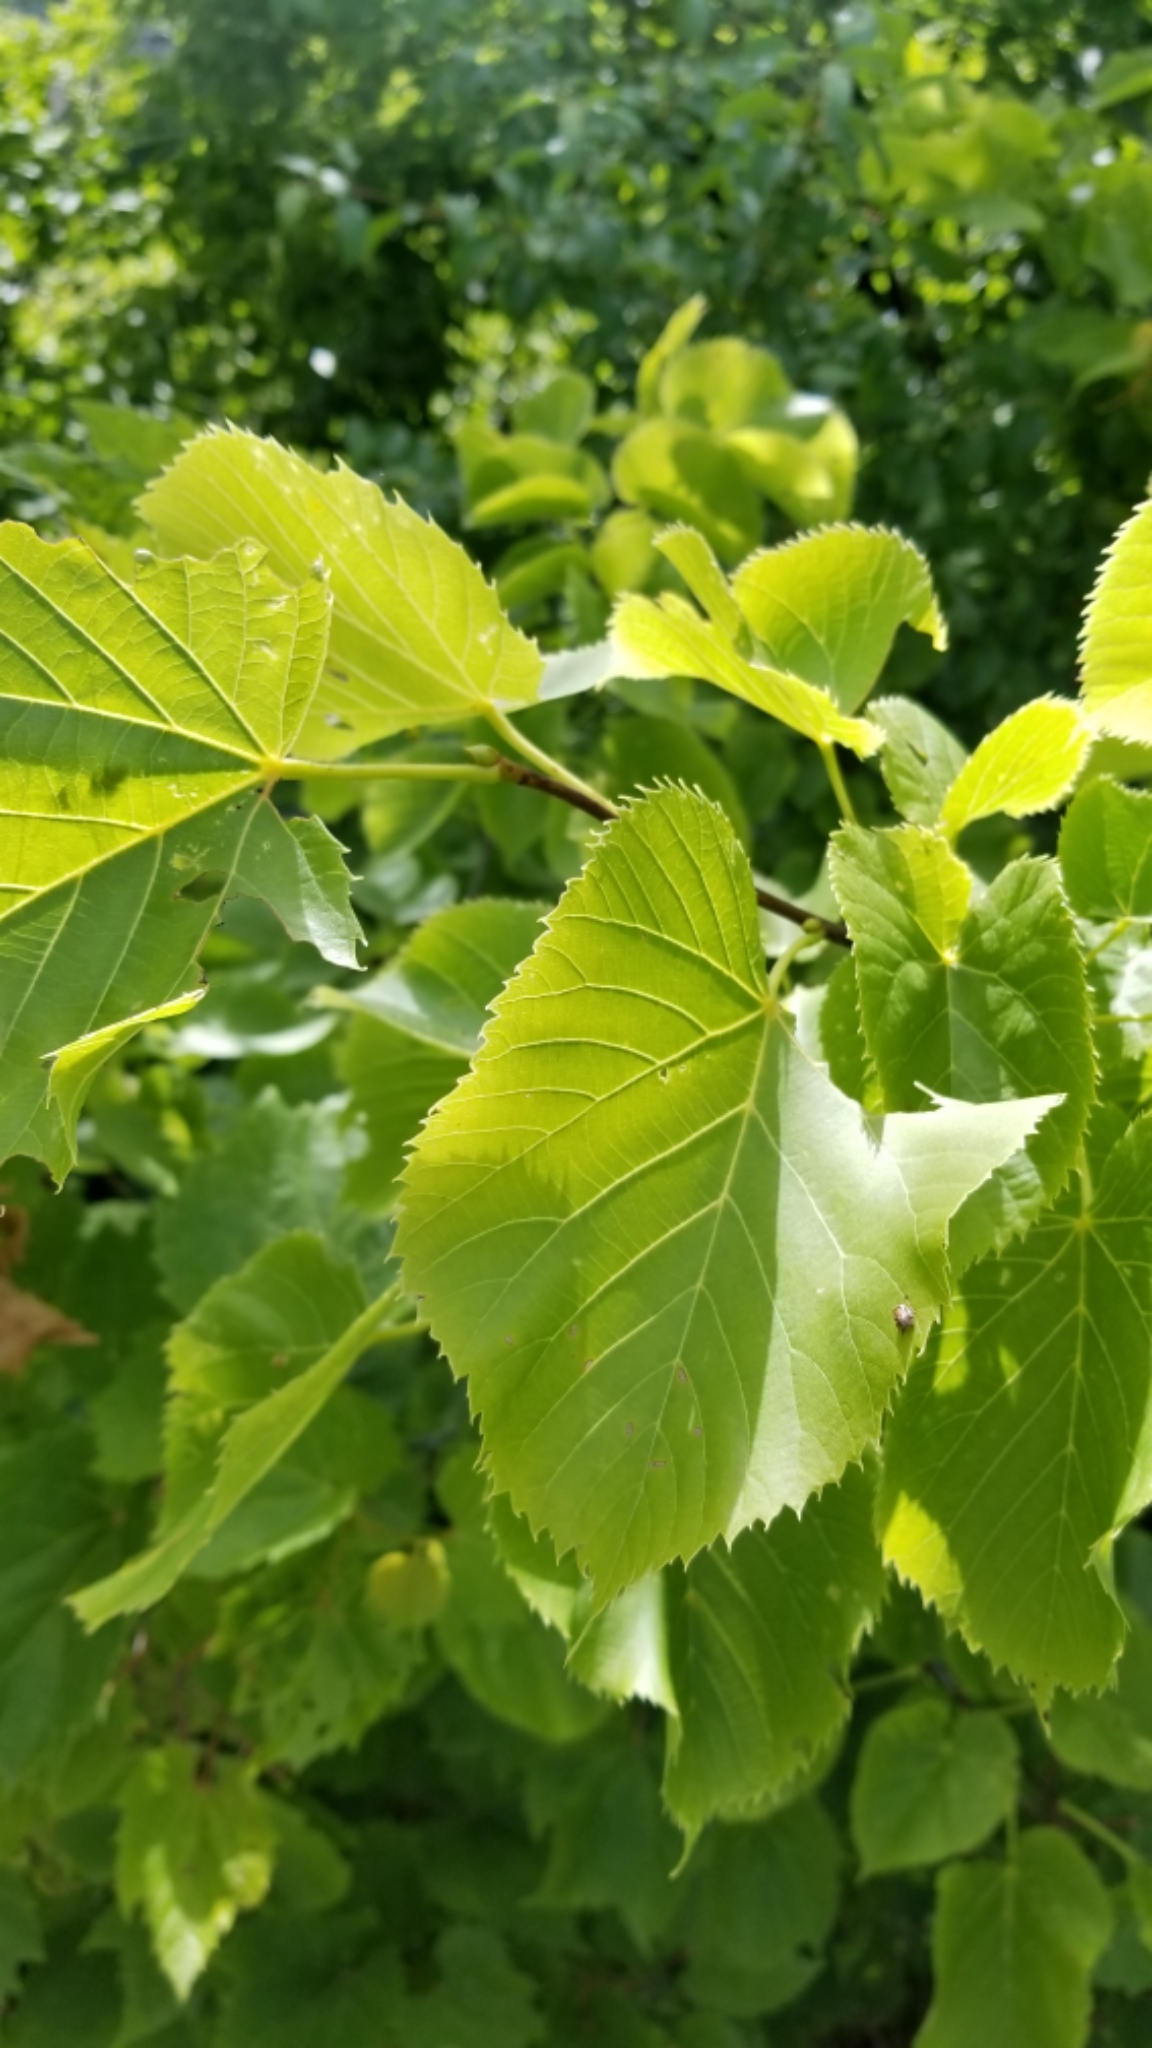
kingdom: Plantae
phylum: Tracheophyta
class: Magnoliopsida
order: Vitales
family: Vitaceae
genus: Vitis
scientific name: Vitis riparia
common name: Frost grape
